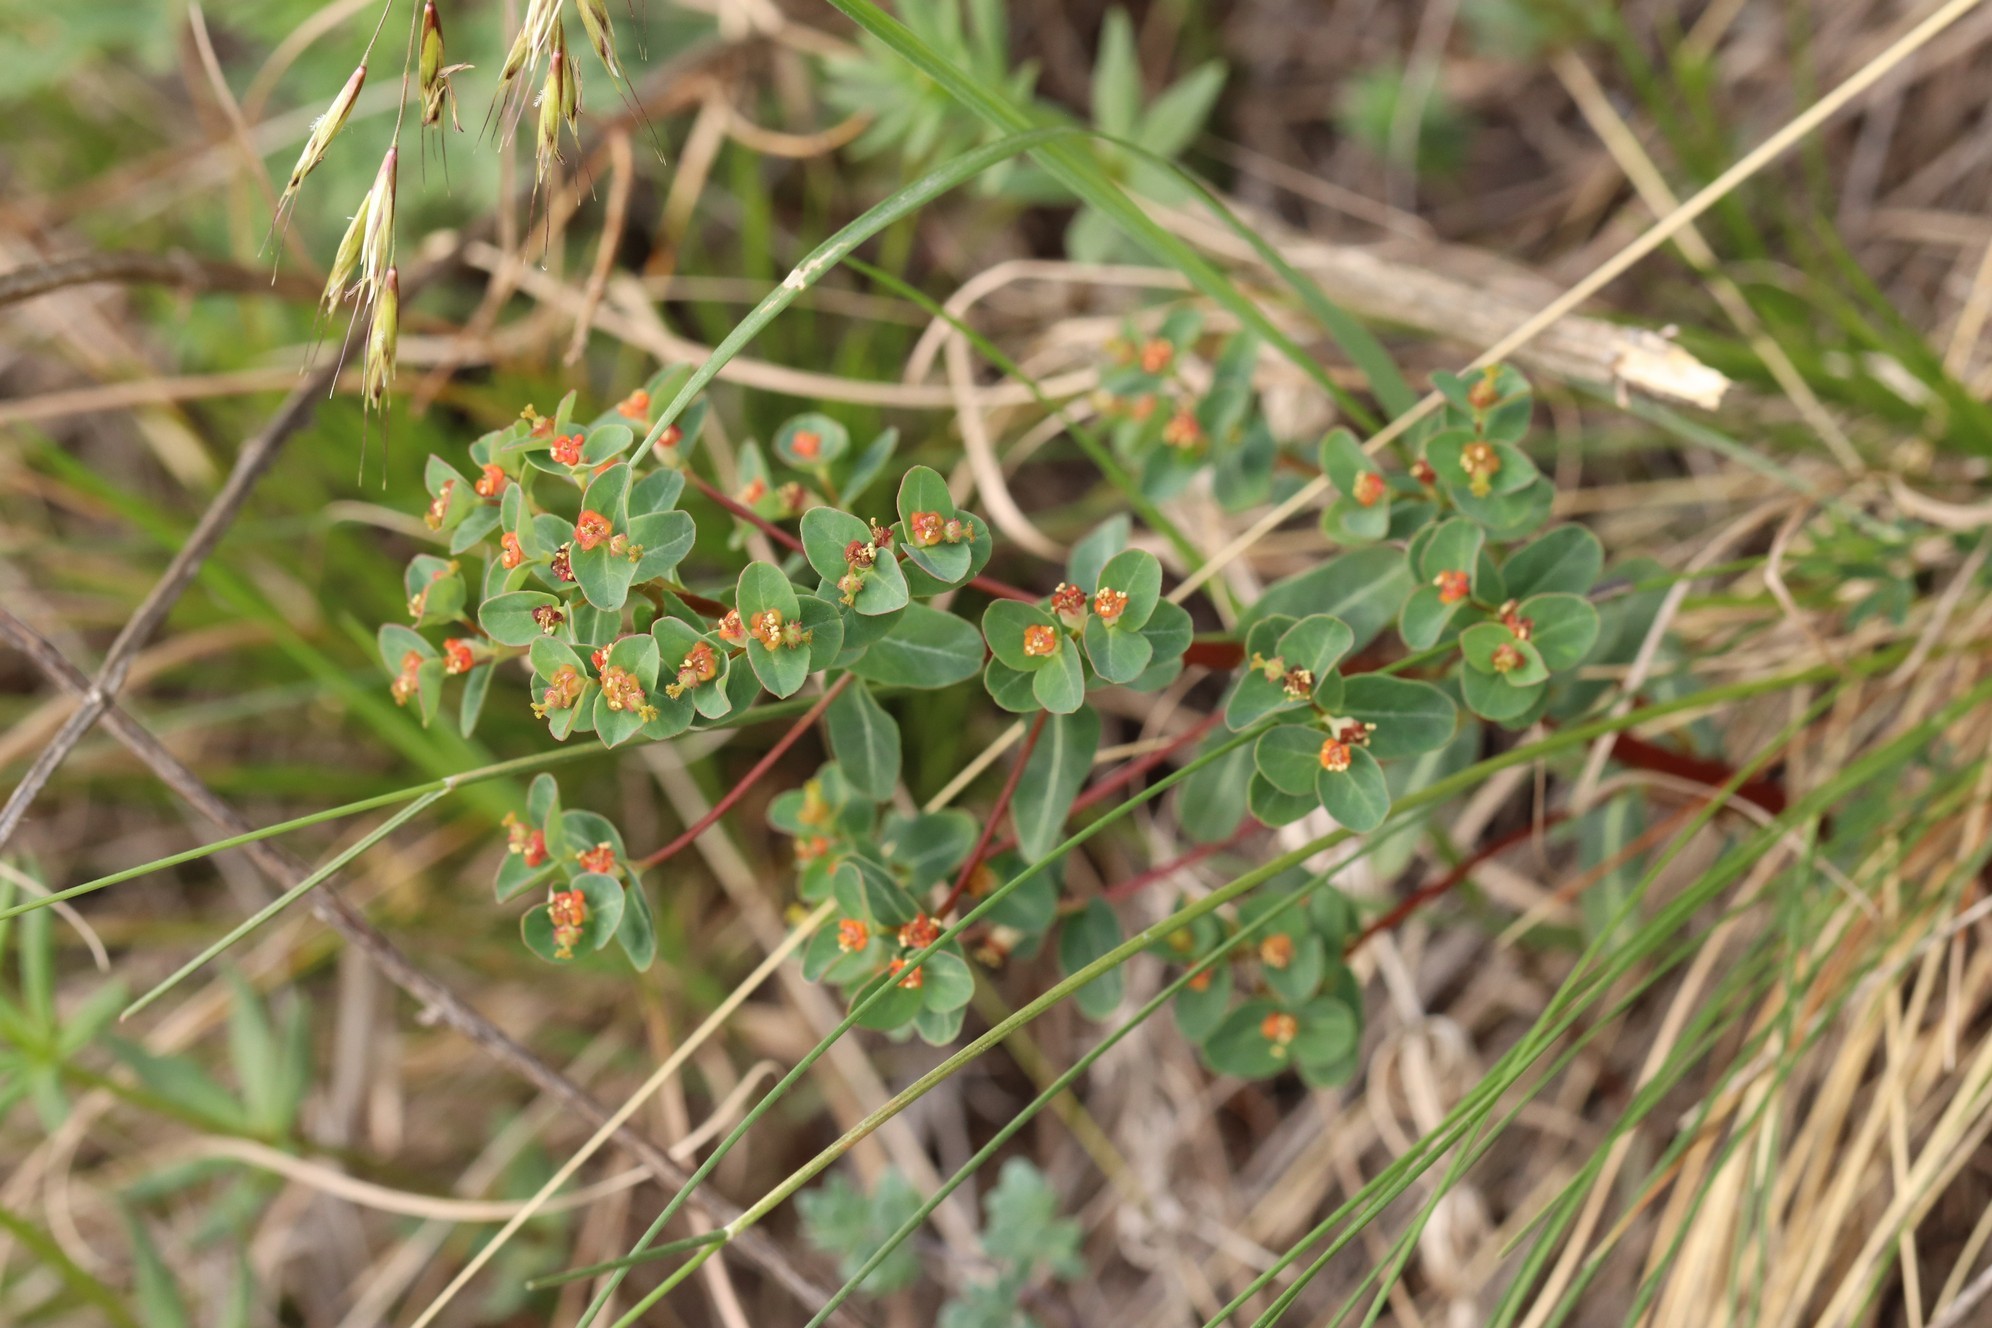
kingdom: Plantae
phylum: Tracheophyta
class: Magnoliopsida
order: Malpighiales
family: Euphorbiaceae
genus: Euphorbia
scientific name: Euphorbia alpina
